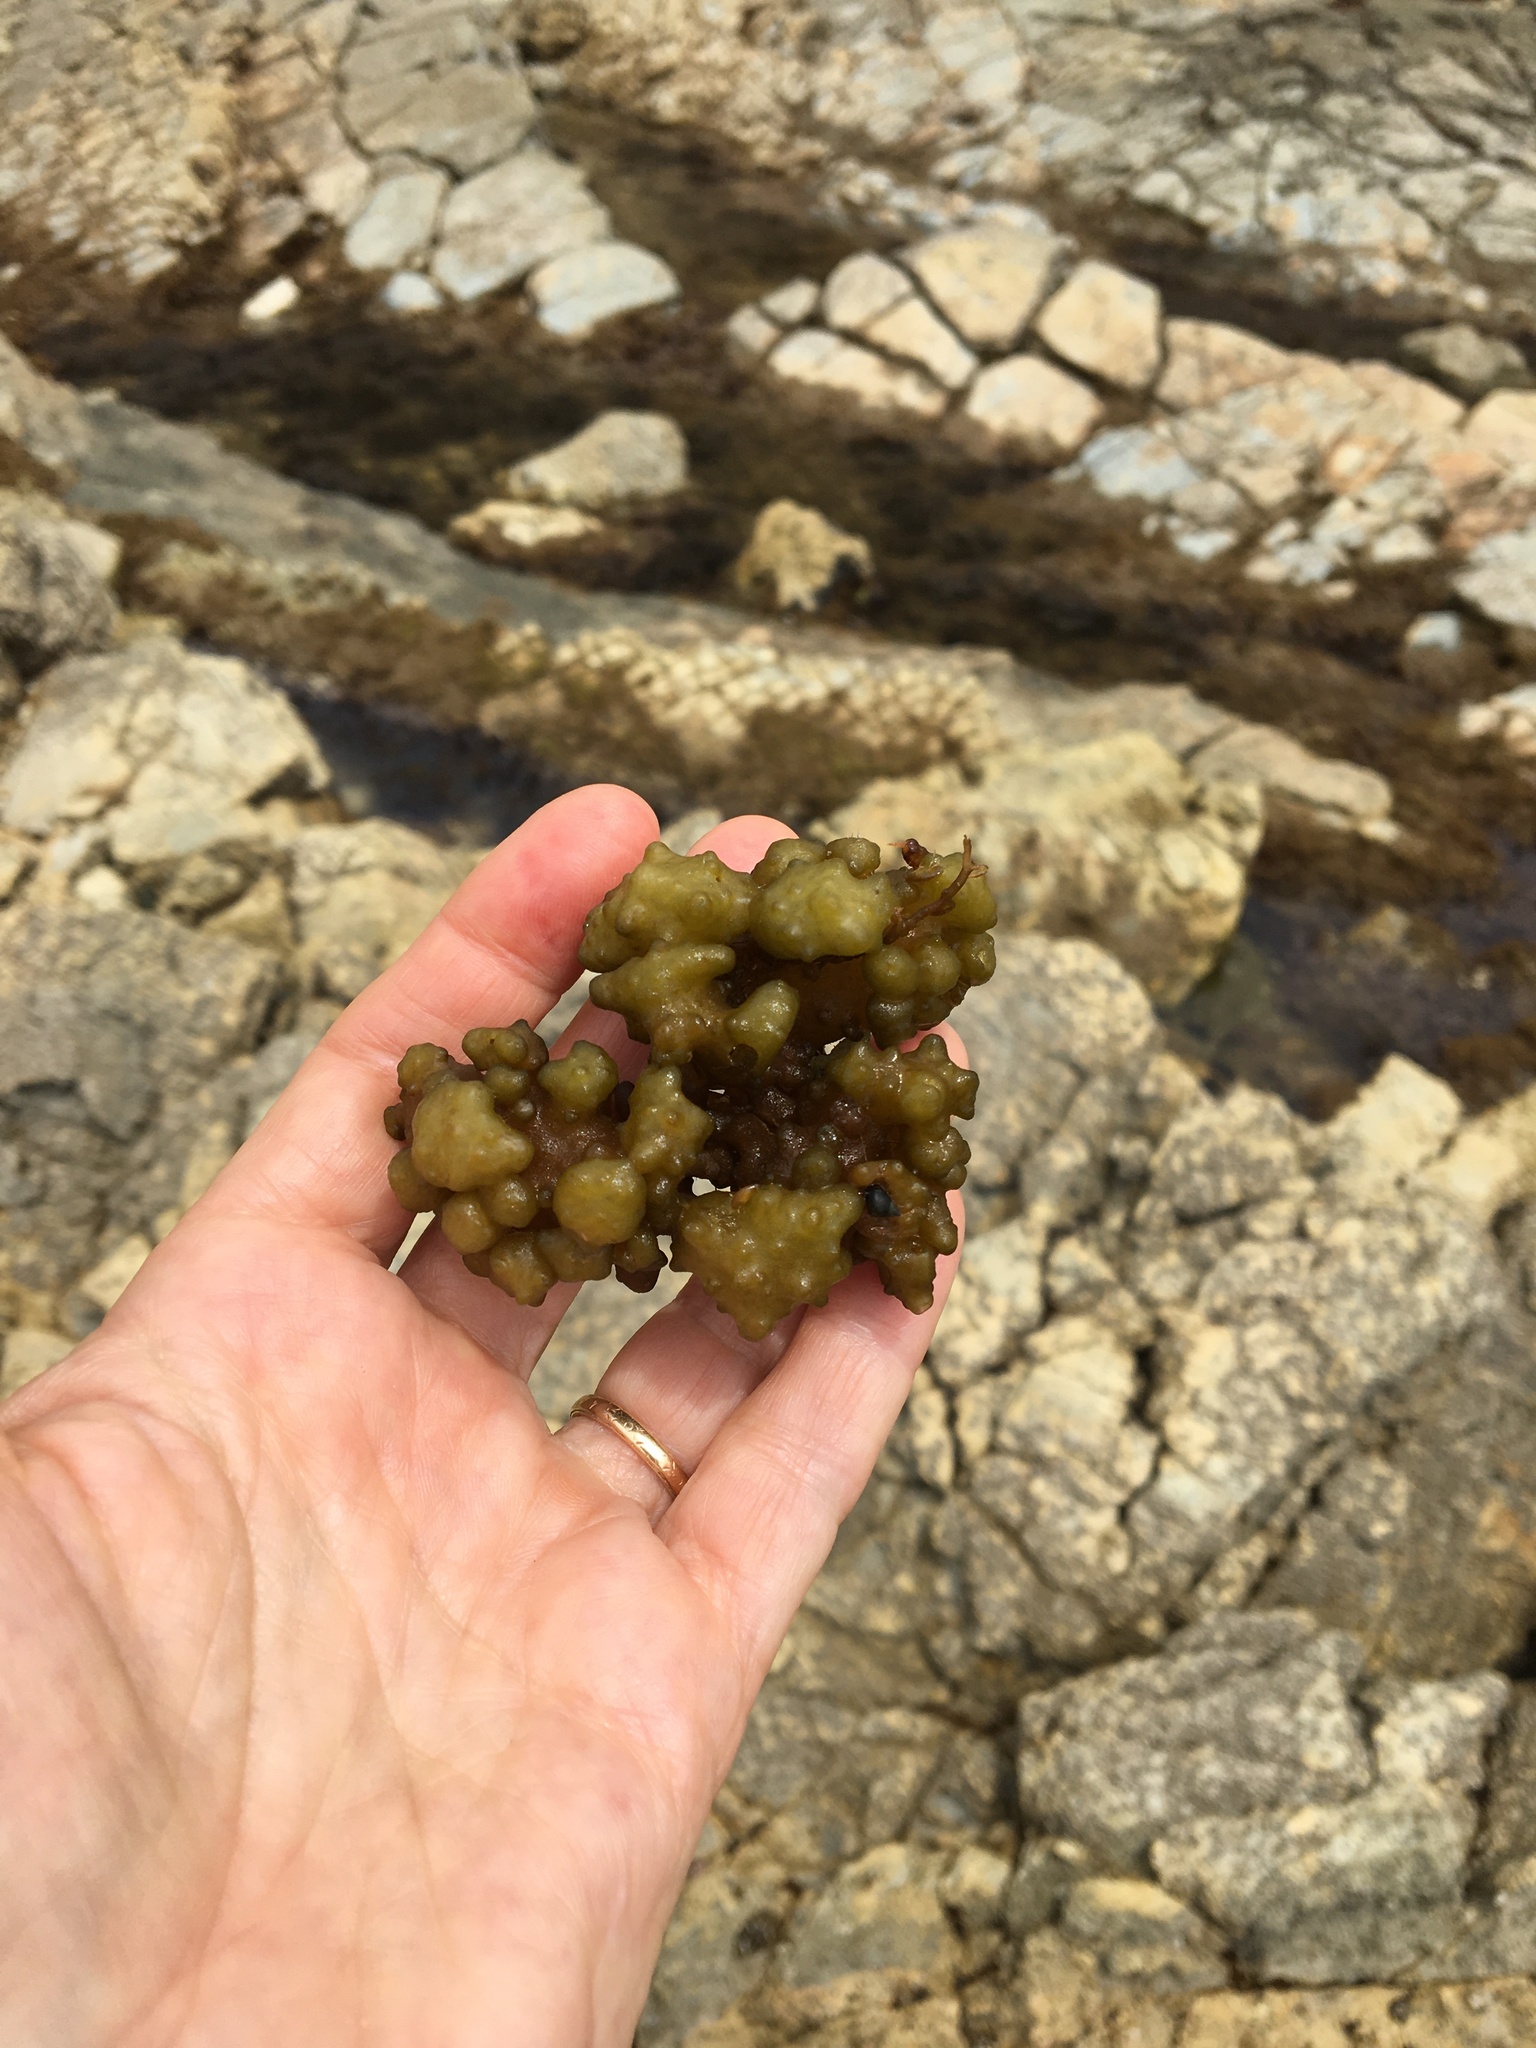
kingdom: Chromista
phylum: Ochrophyta
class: Phaeophyceae
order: Scytosiphonales
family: Scytosiphonaceae
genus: Colpomenia
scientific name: Colpomenia
